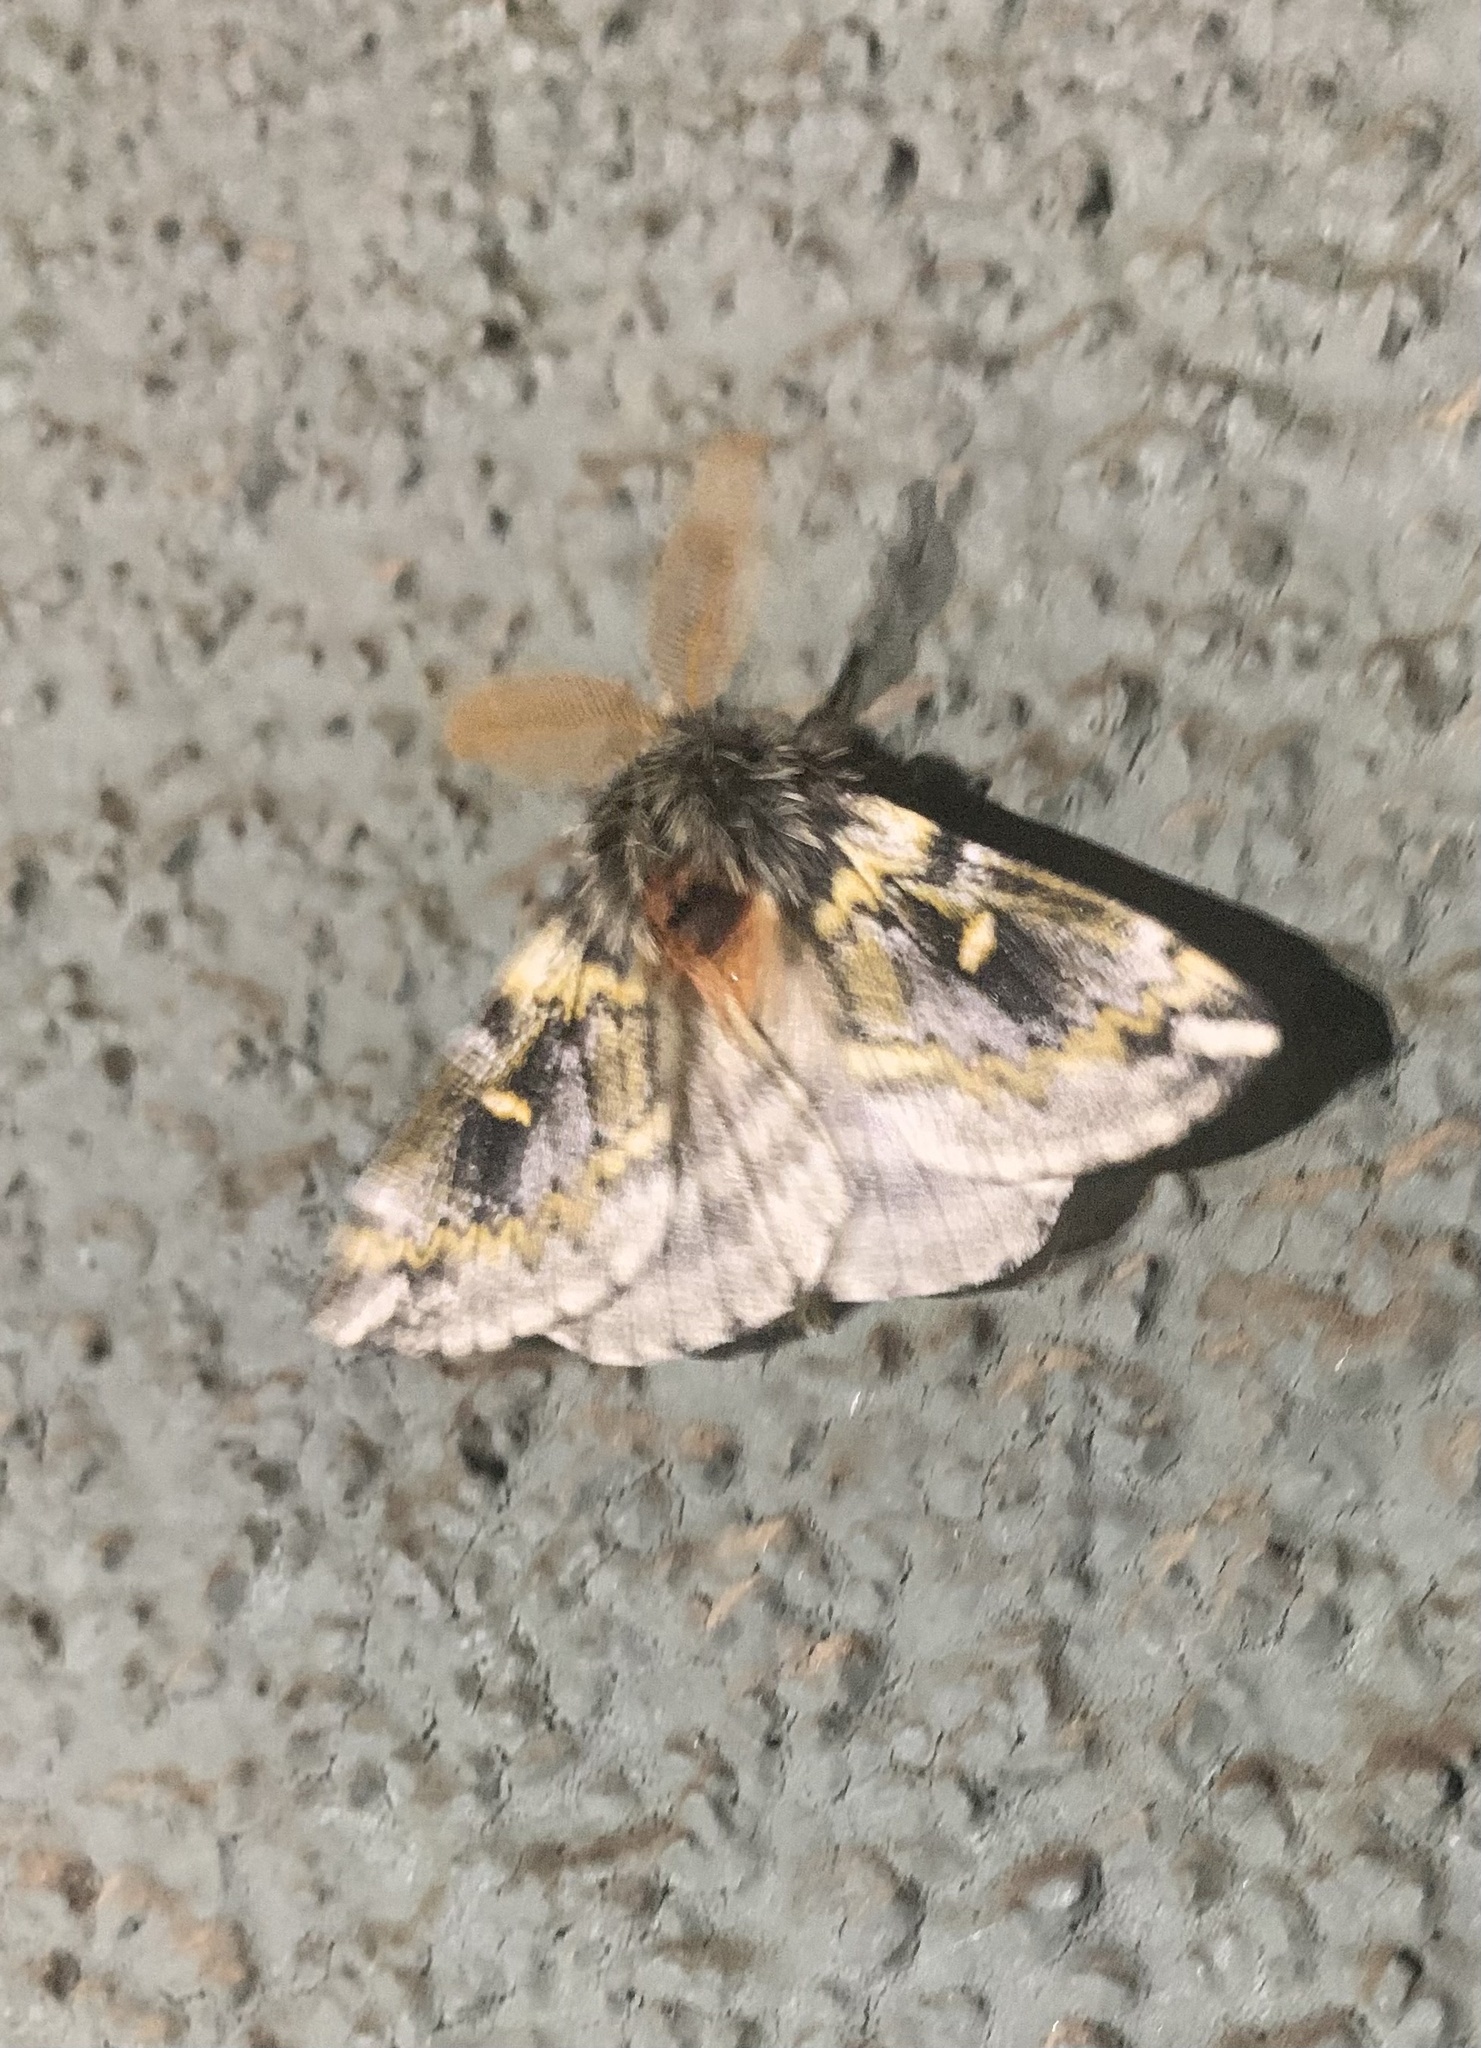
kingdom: Animalia
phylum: Arthropoda
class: Insecta
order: Lepidoptera
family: Saturniidae
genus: Ormiscodes
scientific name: Ormiscodes schmidtnielseni
